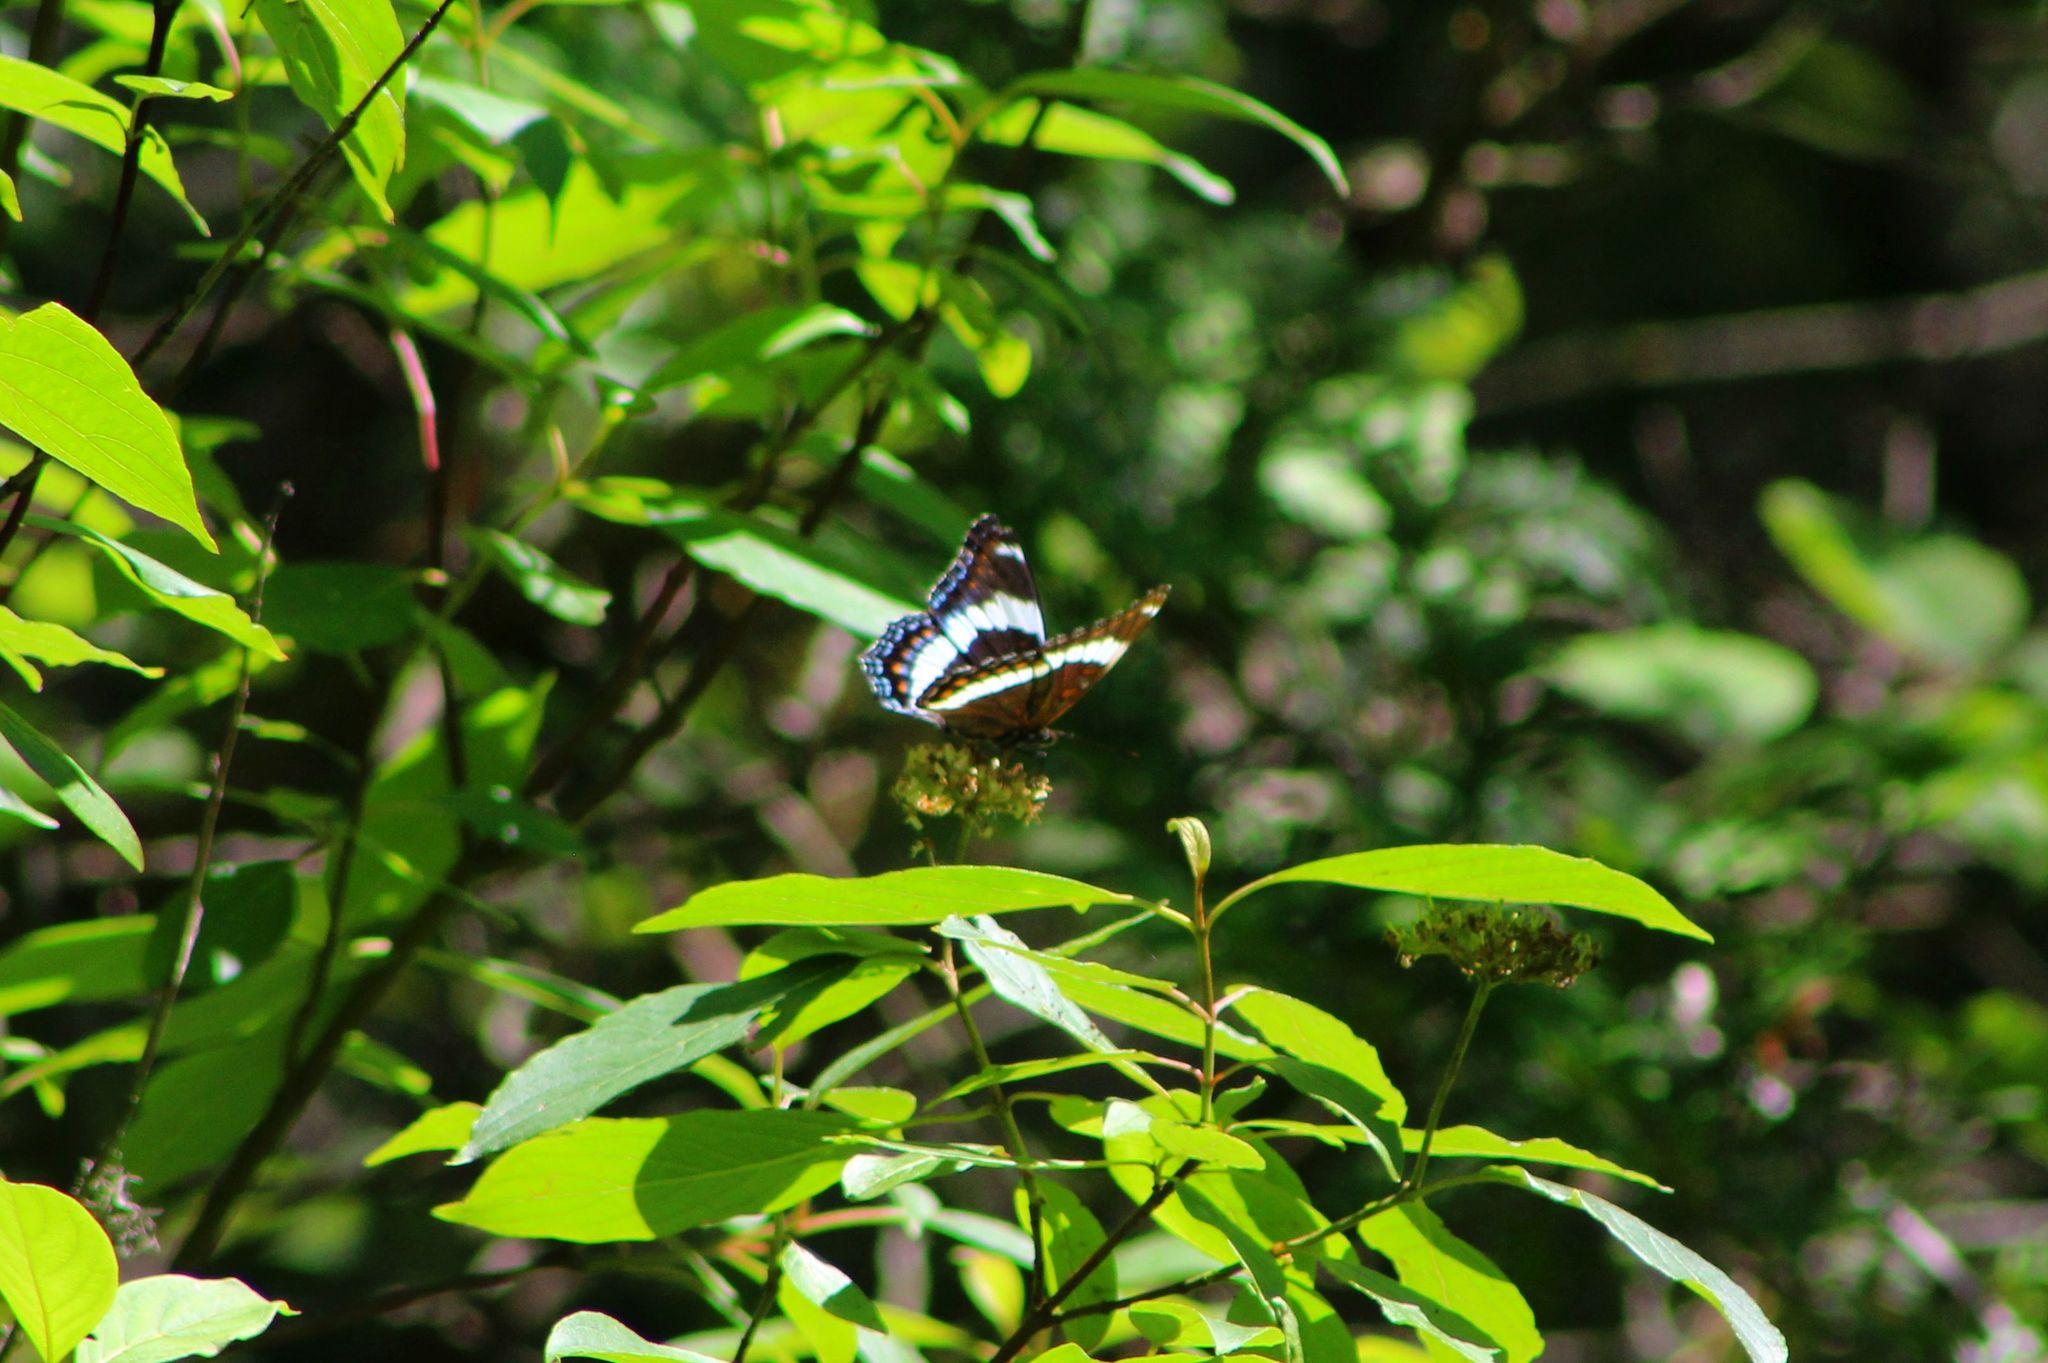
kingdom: Animalia
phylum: Arthropoda
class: Insecta
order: Lepidoptera
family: Nymphalidae
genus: Limenitis
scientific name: Limenitis arthemis
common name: Red-spotted admiral
